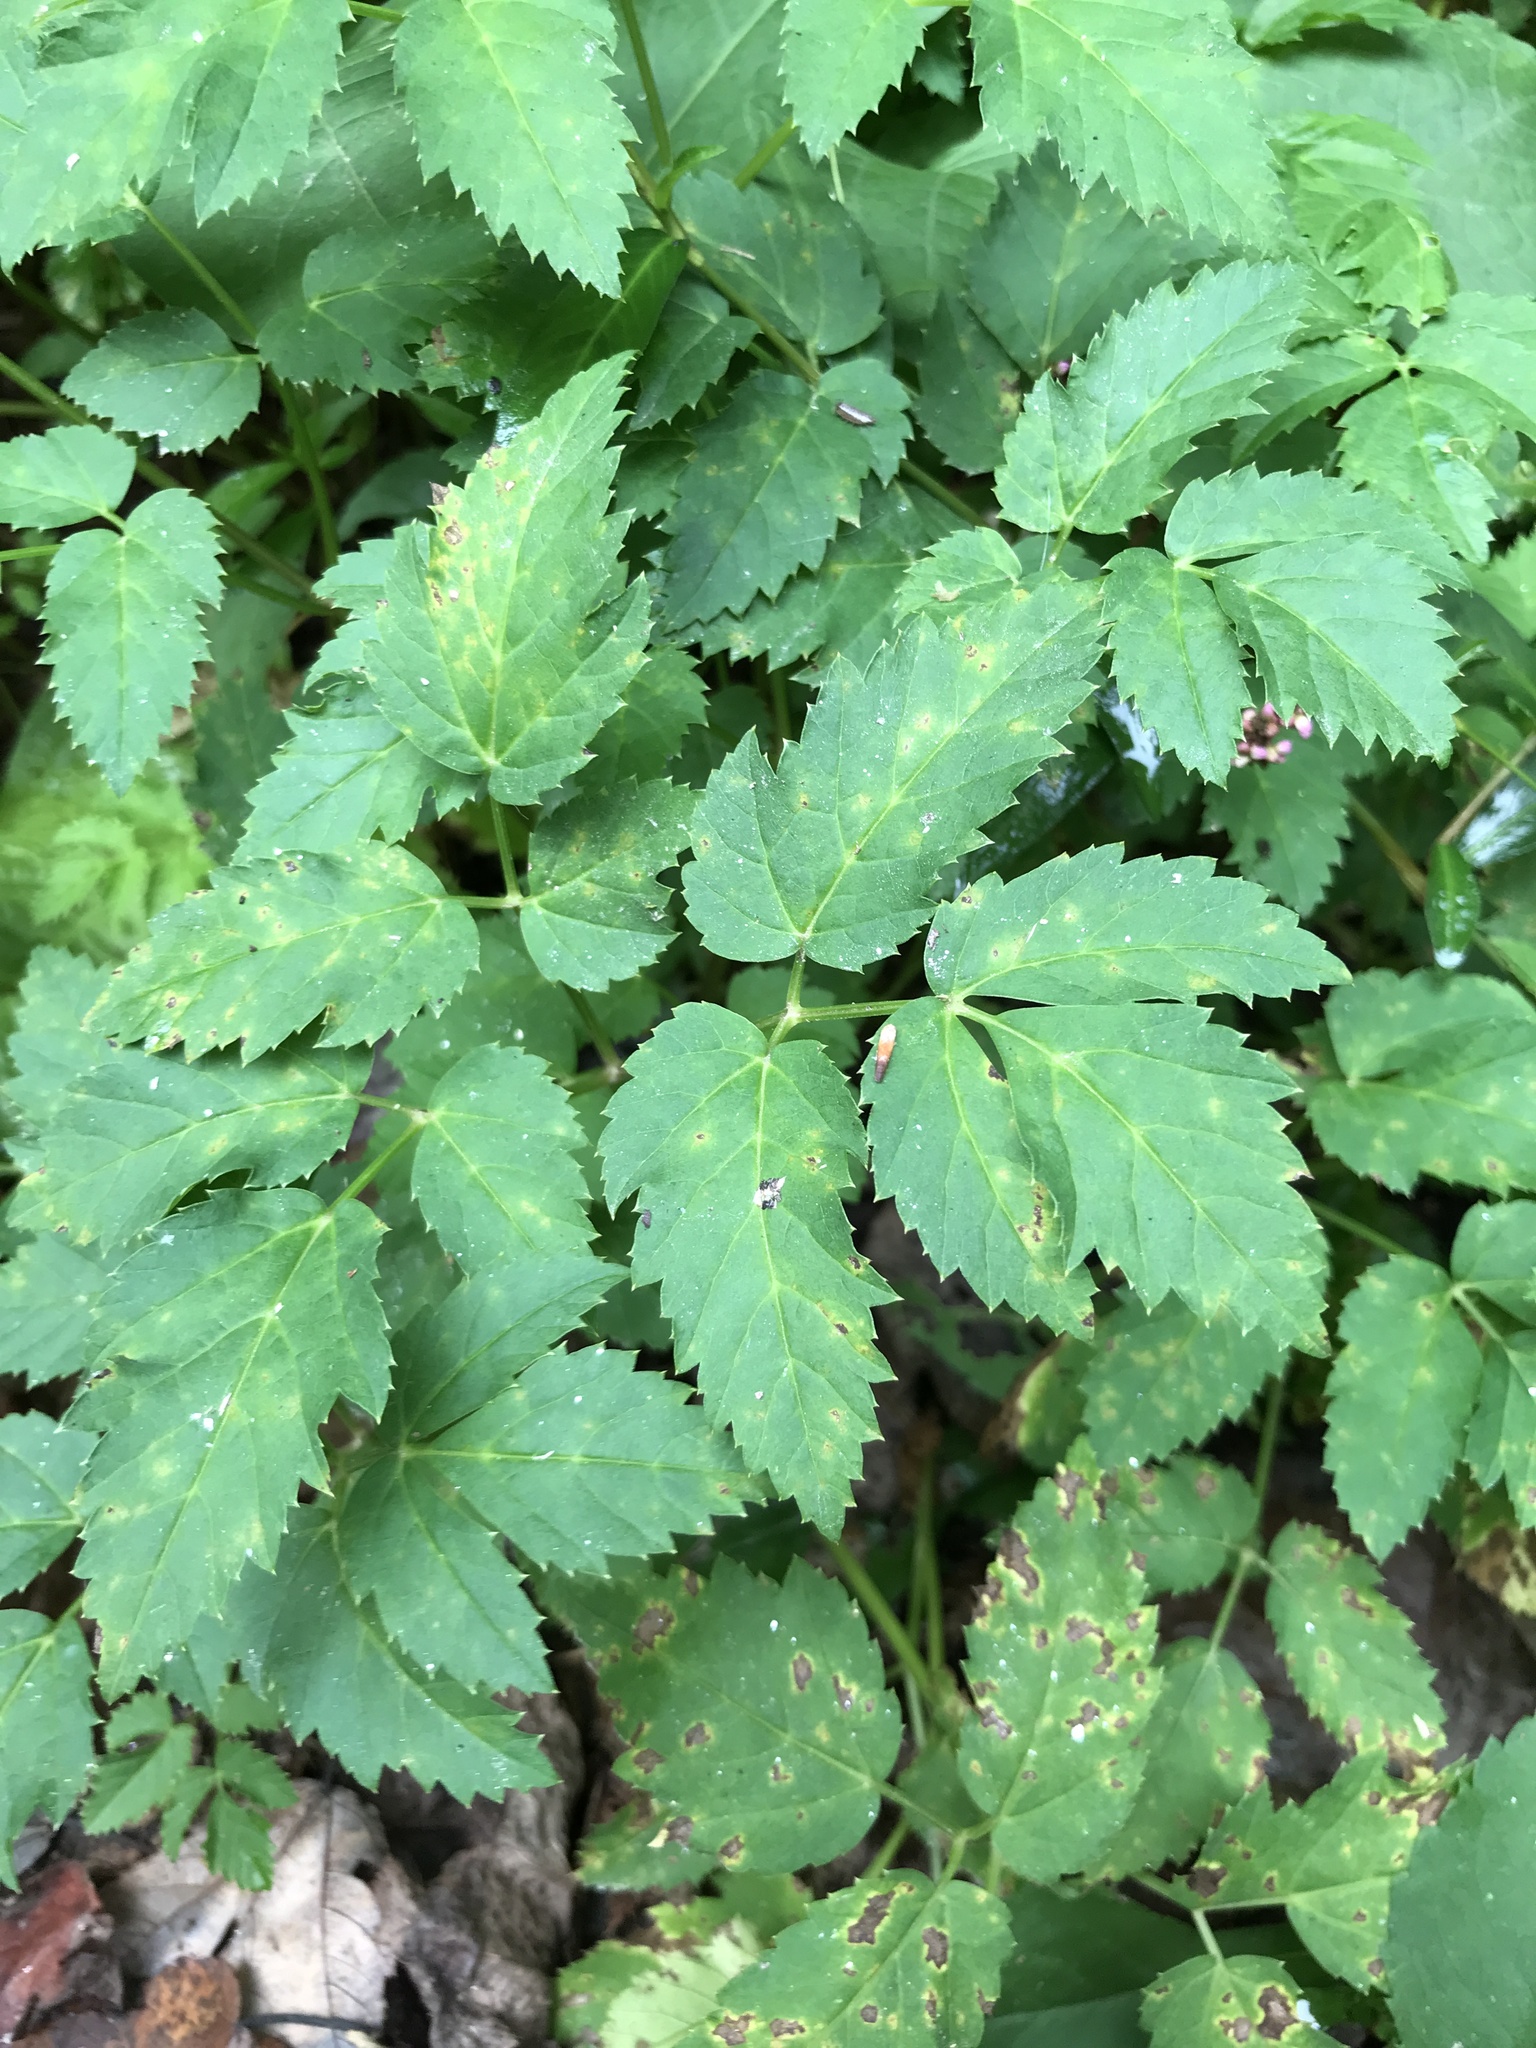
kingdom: Plantae
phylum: Tracheophyta
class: Magnoliopsida
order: Apiales
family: Apiaceae
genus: Aegopodium
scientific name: Aegopodium podagraria
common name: Ground-elder
